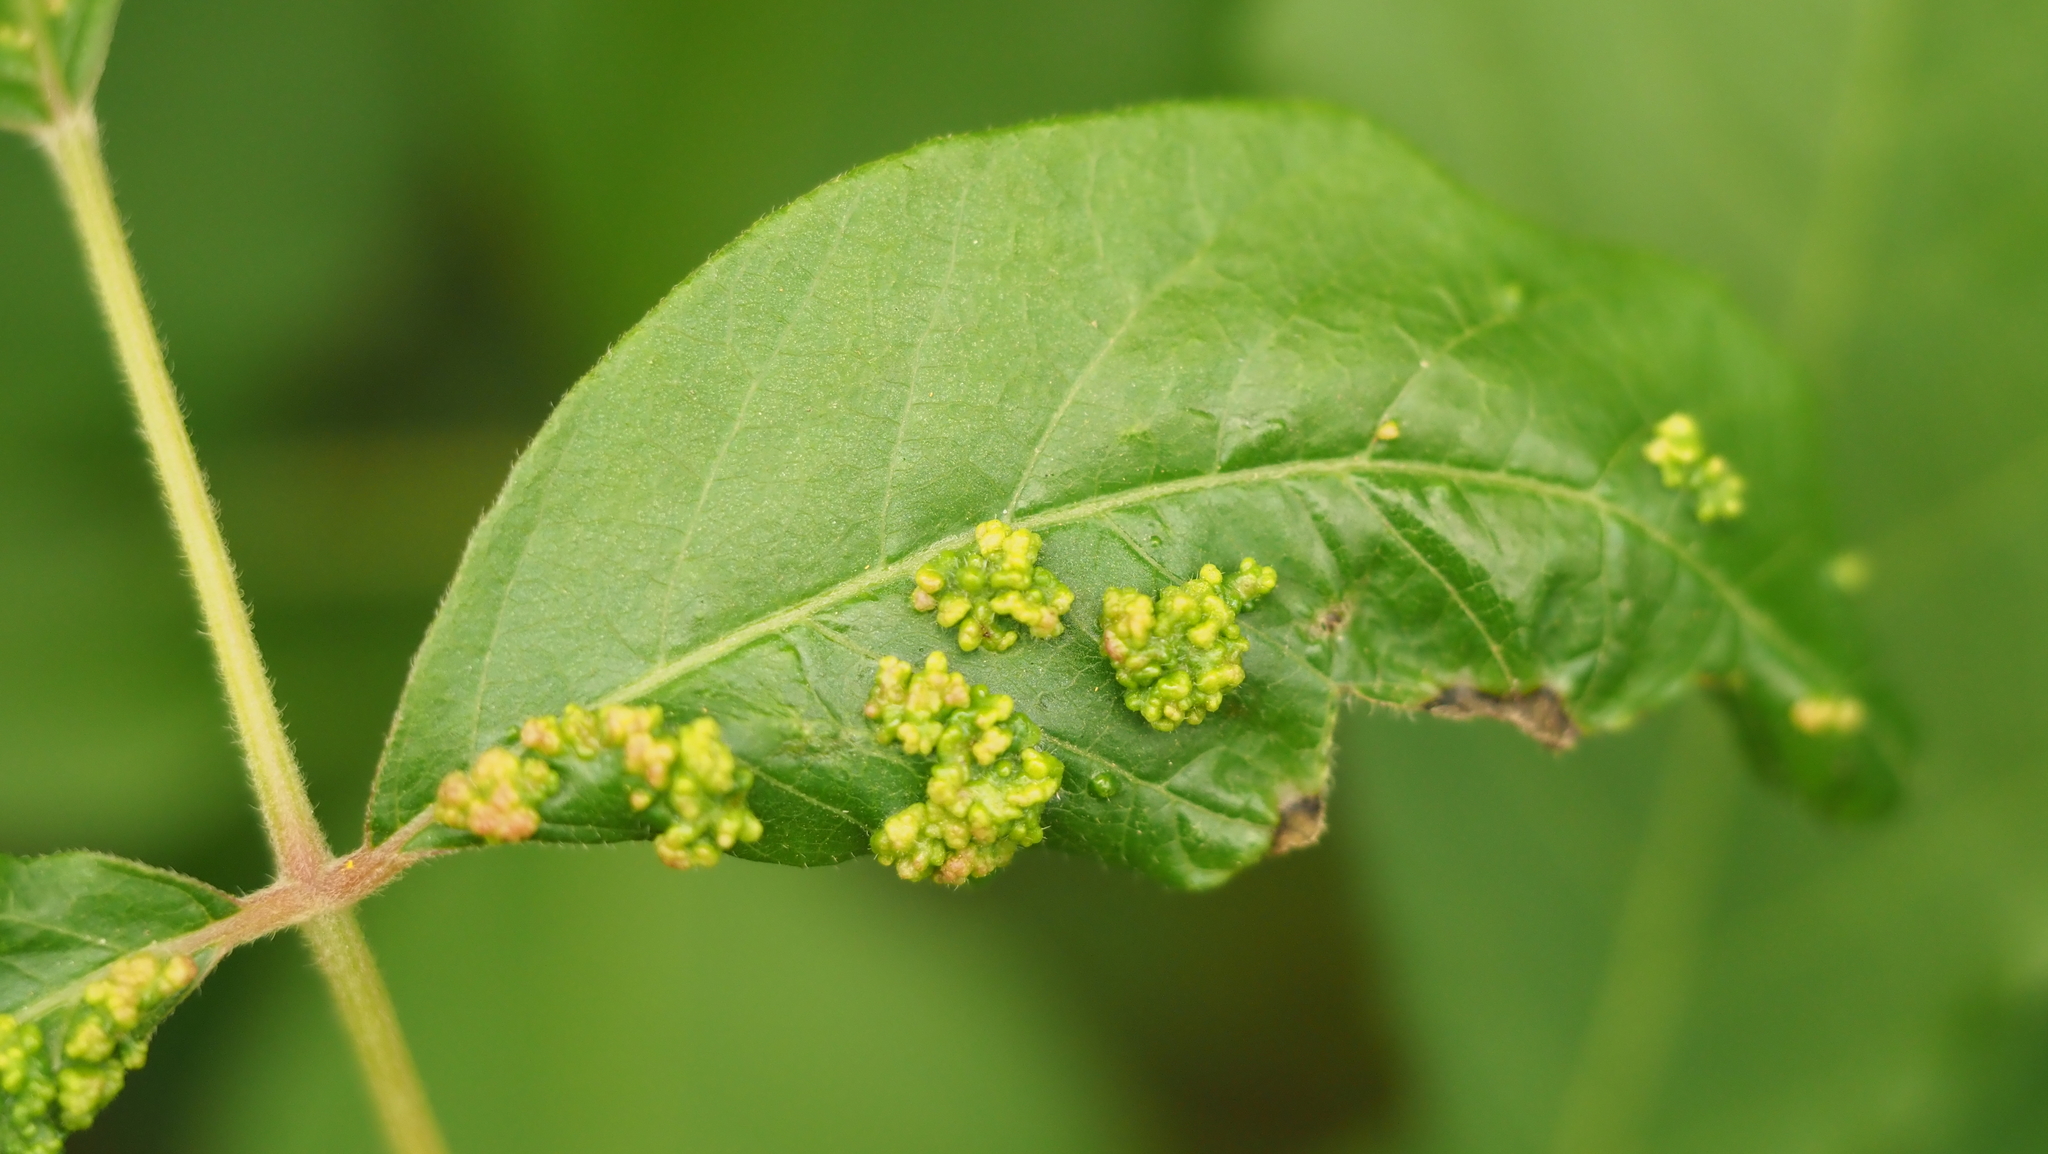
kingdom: Animalia
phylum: Arthropoda
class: Arachnida
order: Trombidiformes
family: Eriophyidae
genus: Aculops
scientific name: Aculops
